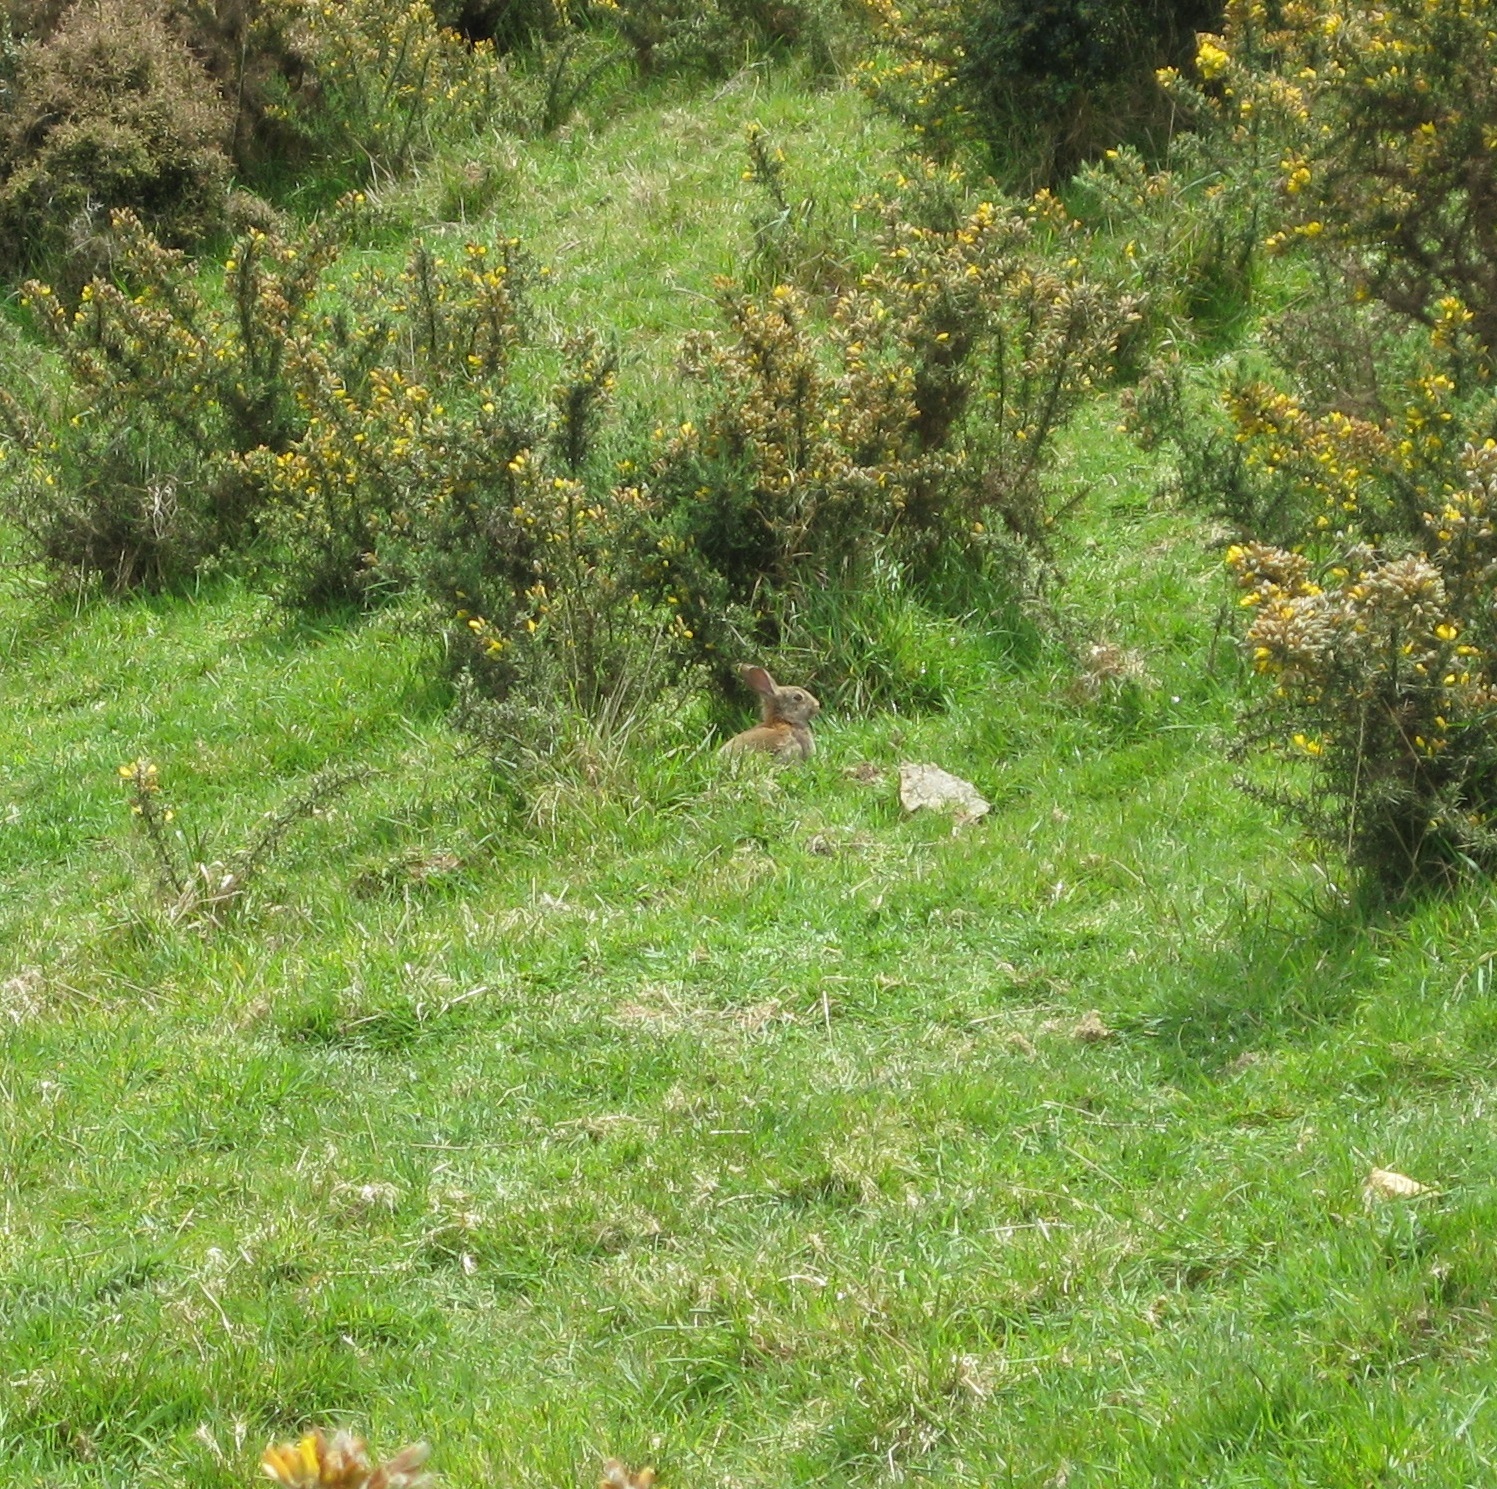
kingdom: Animalia
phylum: Chordata
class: Mammalia
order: Lagomorpha
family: Leporidae
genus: Oryctolagus
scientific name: Oryctolagus cuniculus
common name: European rabbit
